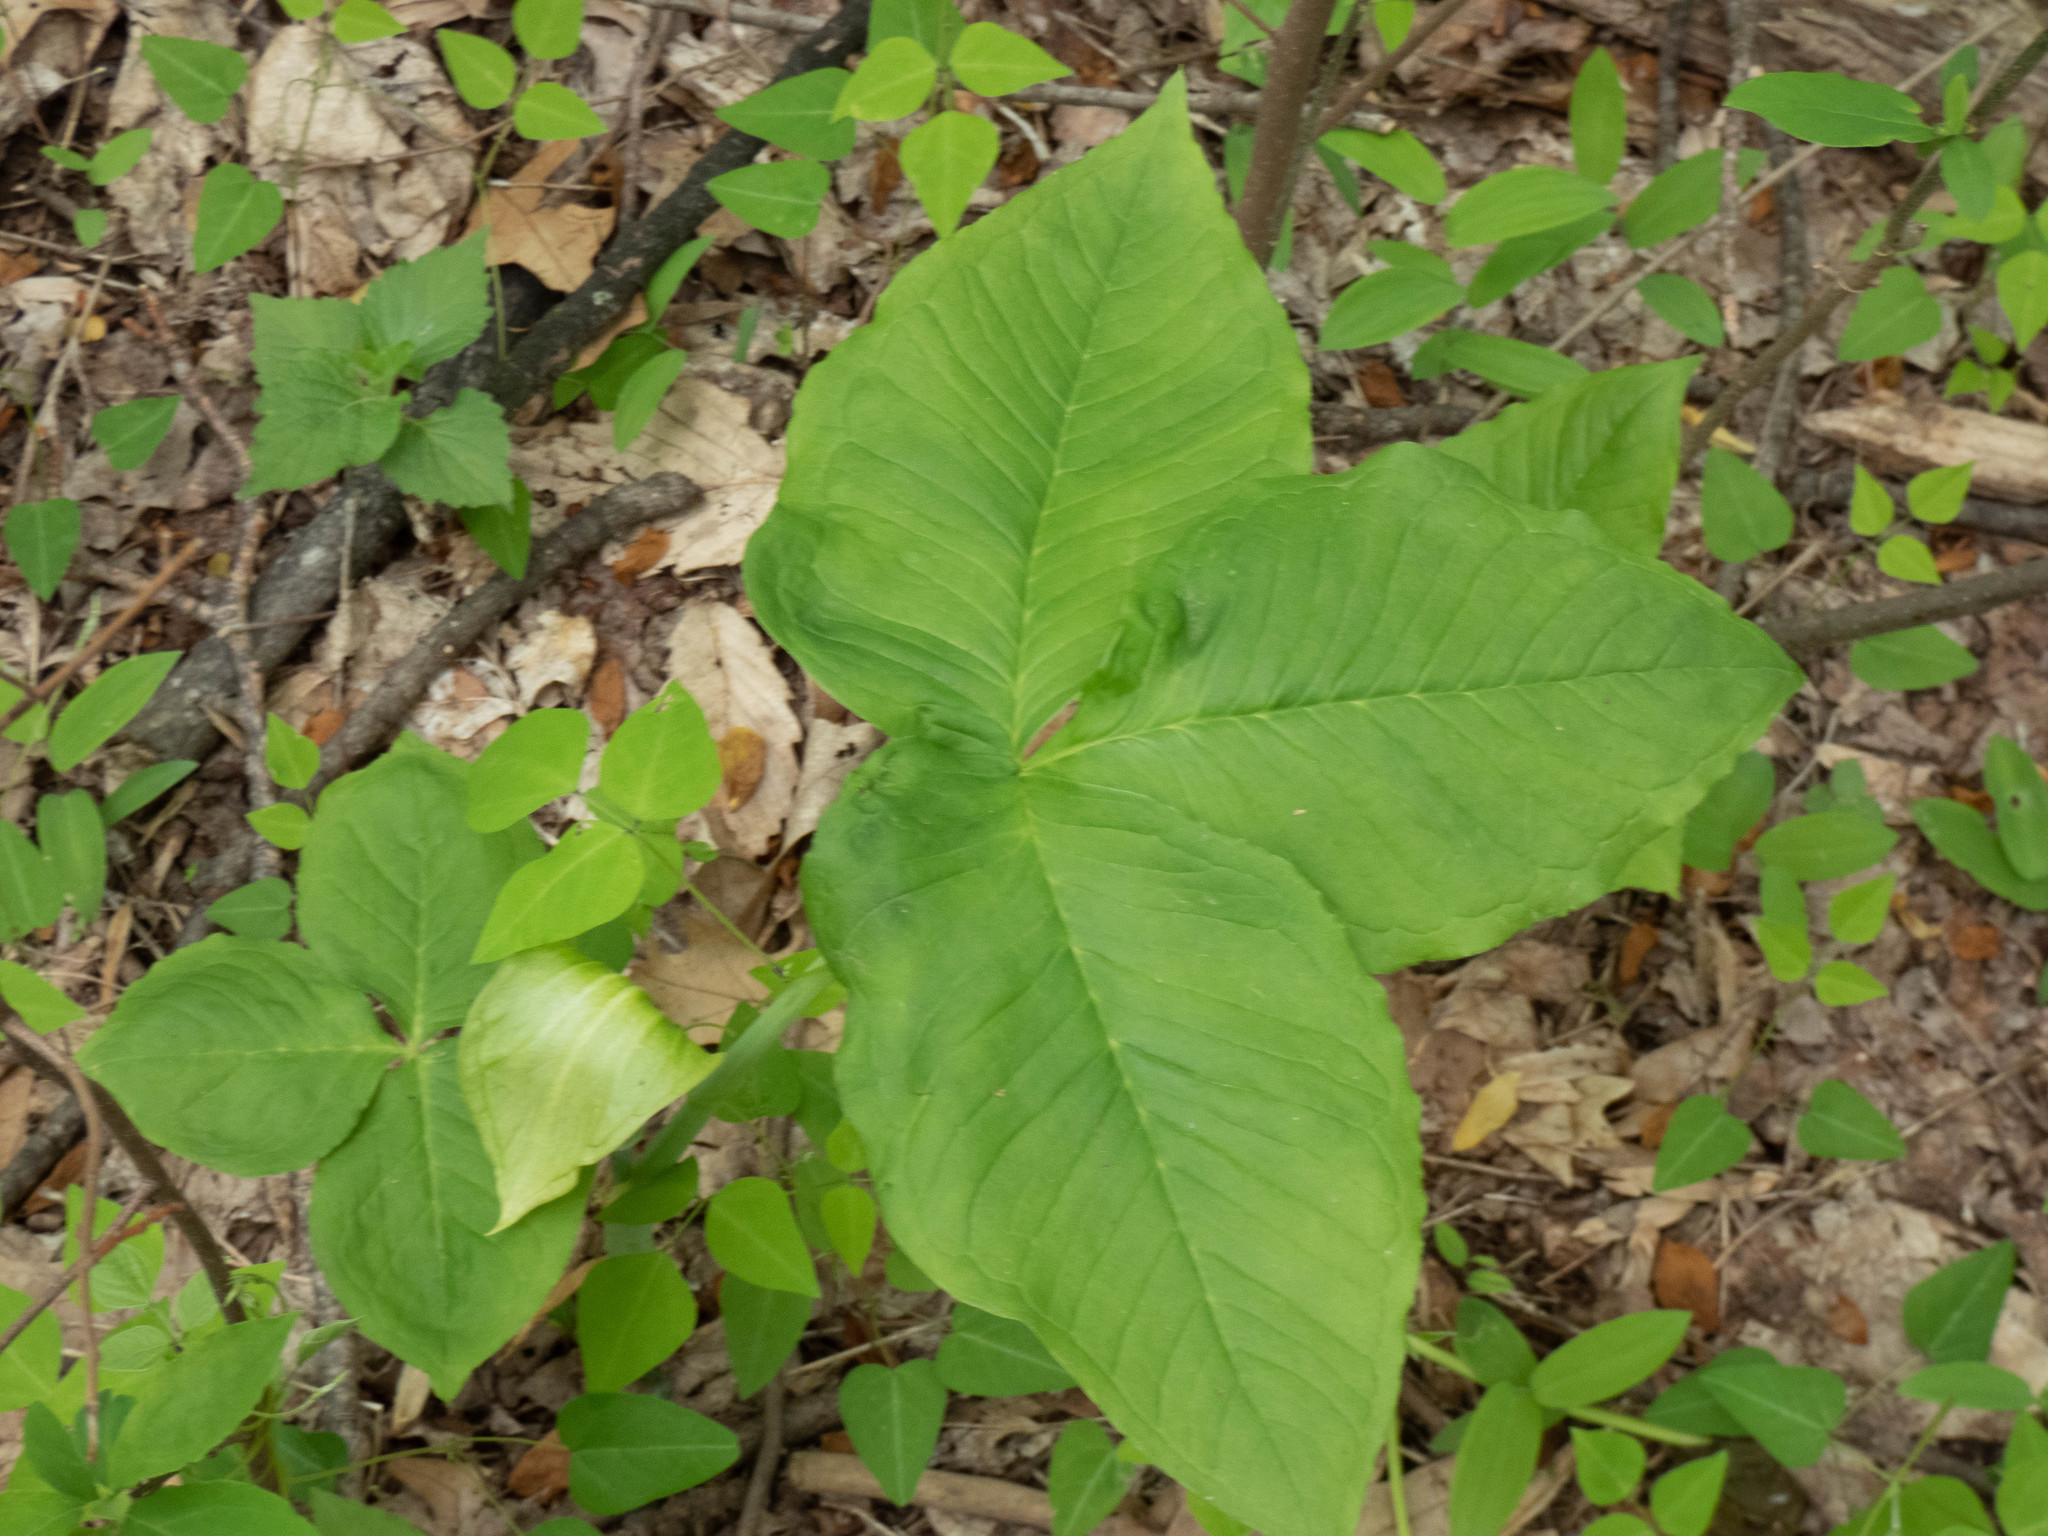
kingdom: Plantae
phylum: Tracheophyta
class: Liliopsida
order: Alismatales
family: Araceae
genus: Arisaema
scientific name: Arisaema triphyllum
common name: Jack-in-the-pulpit
